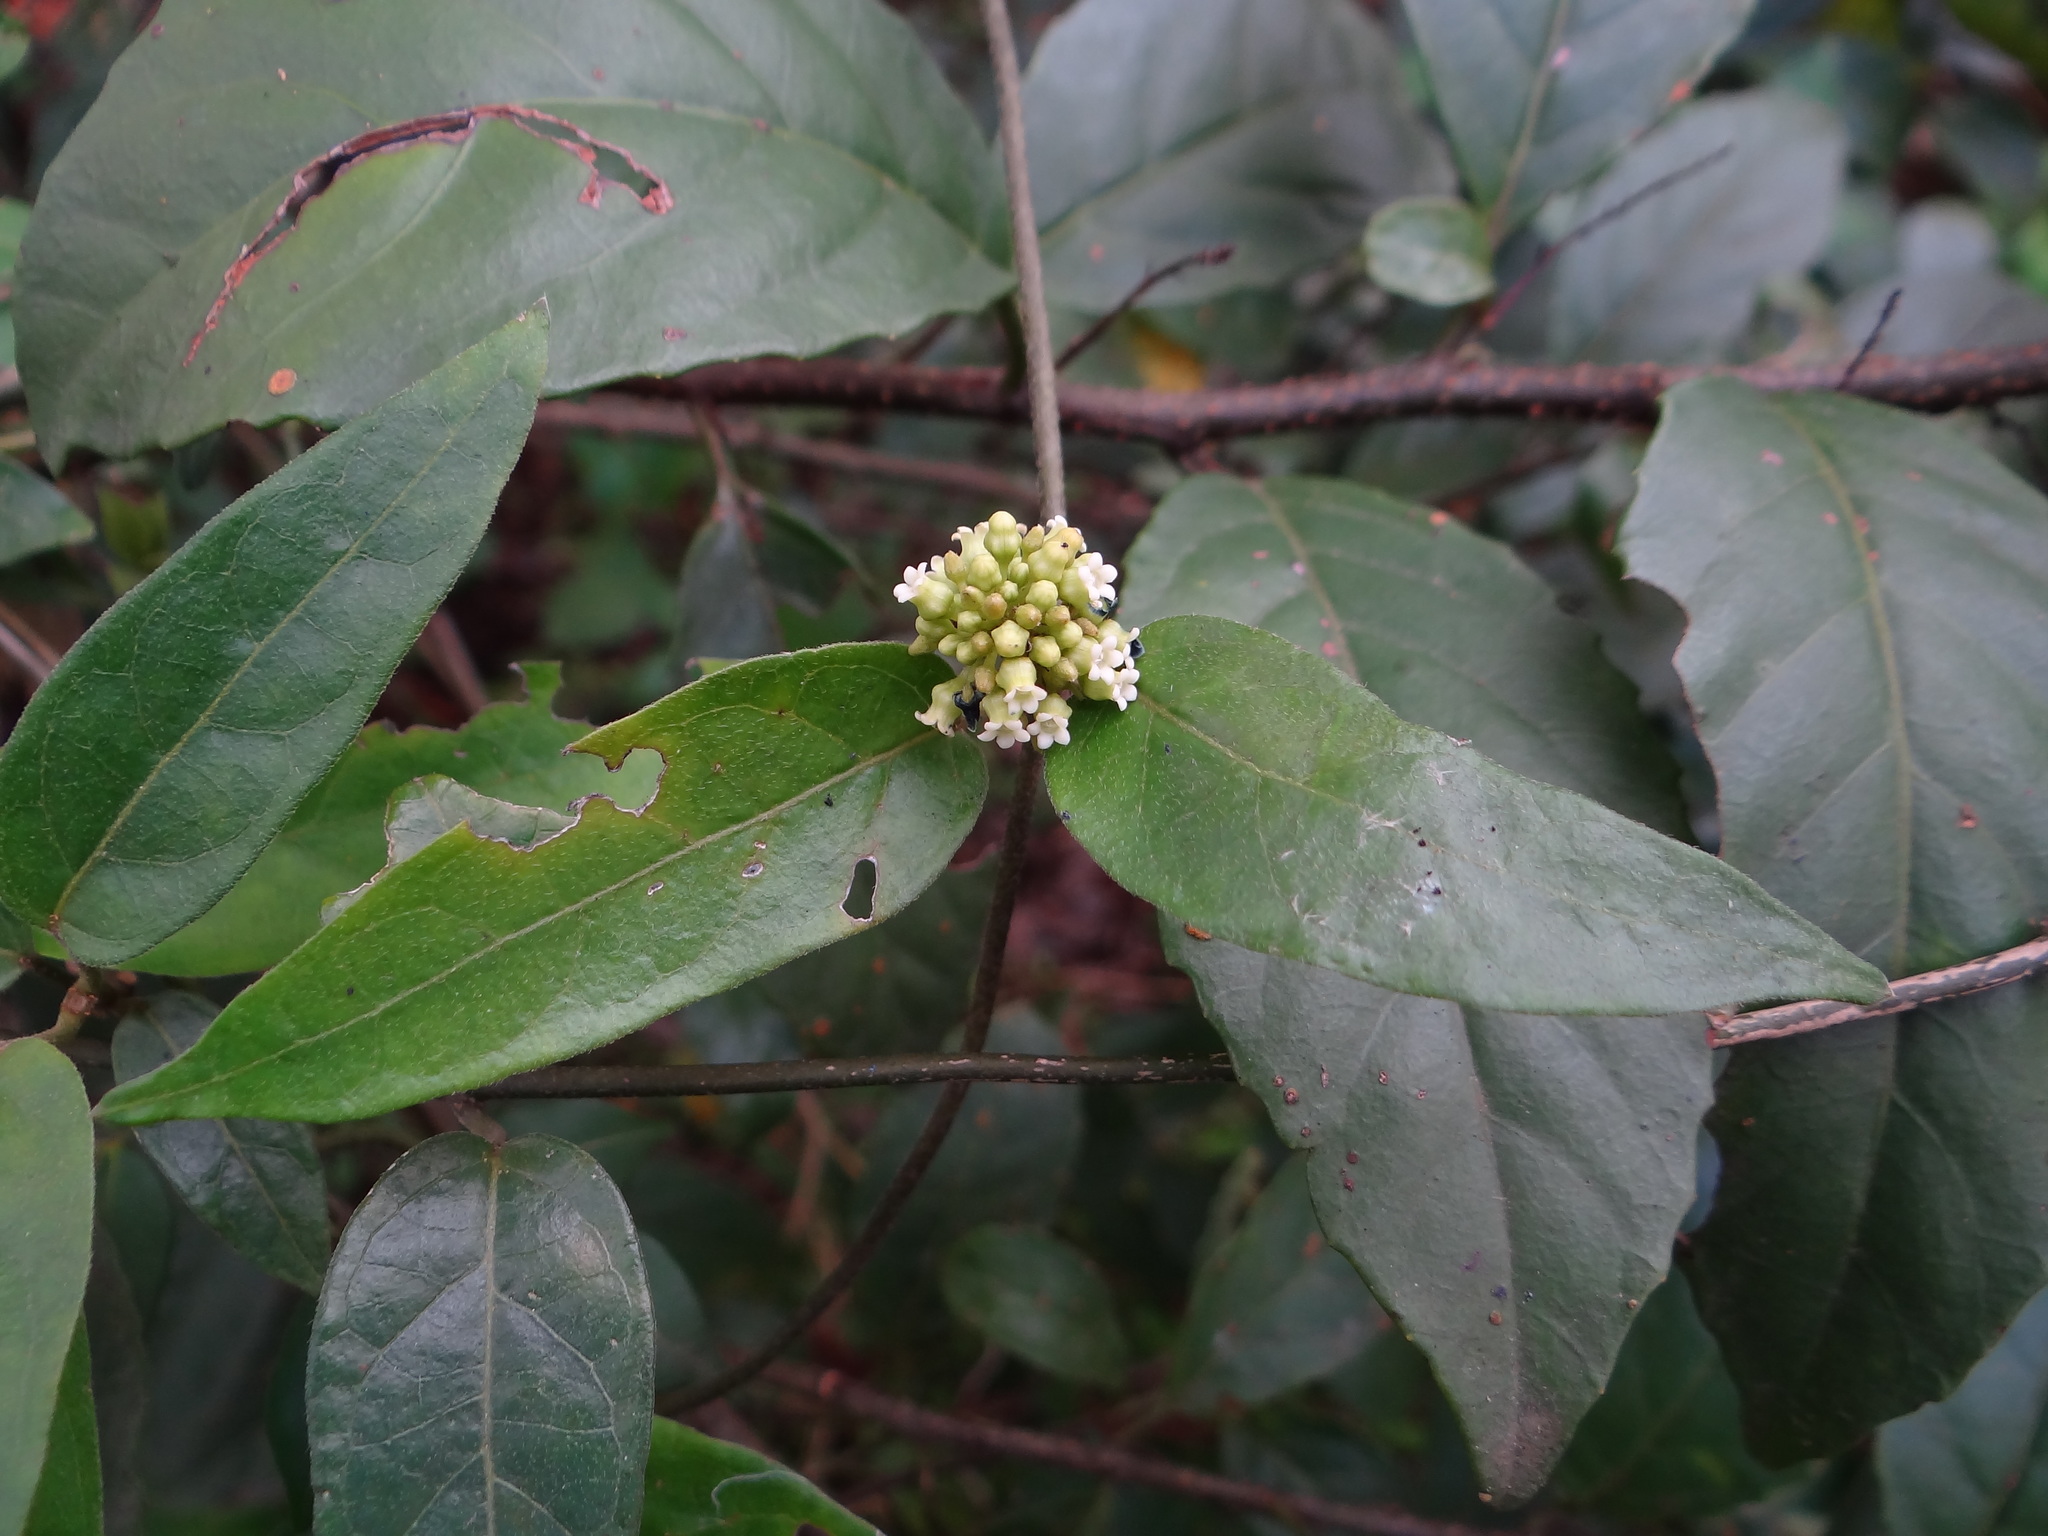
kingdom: Plantae
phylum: Tracheophyta
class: Magnoliopsida
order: Gentianales
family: Apocynaceae
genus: Marsdenia
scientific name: Marsdenia tinctoria
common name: Climbing-indigo
